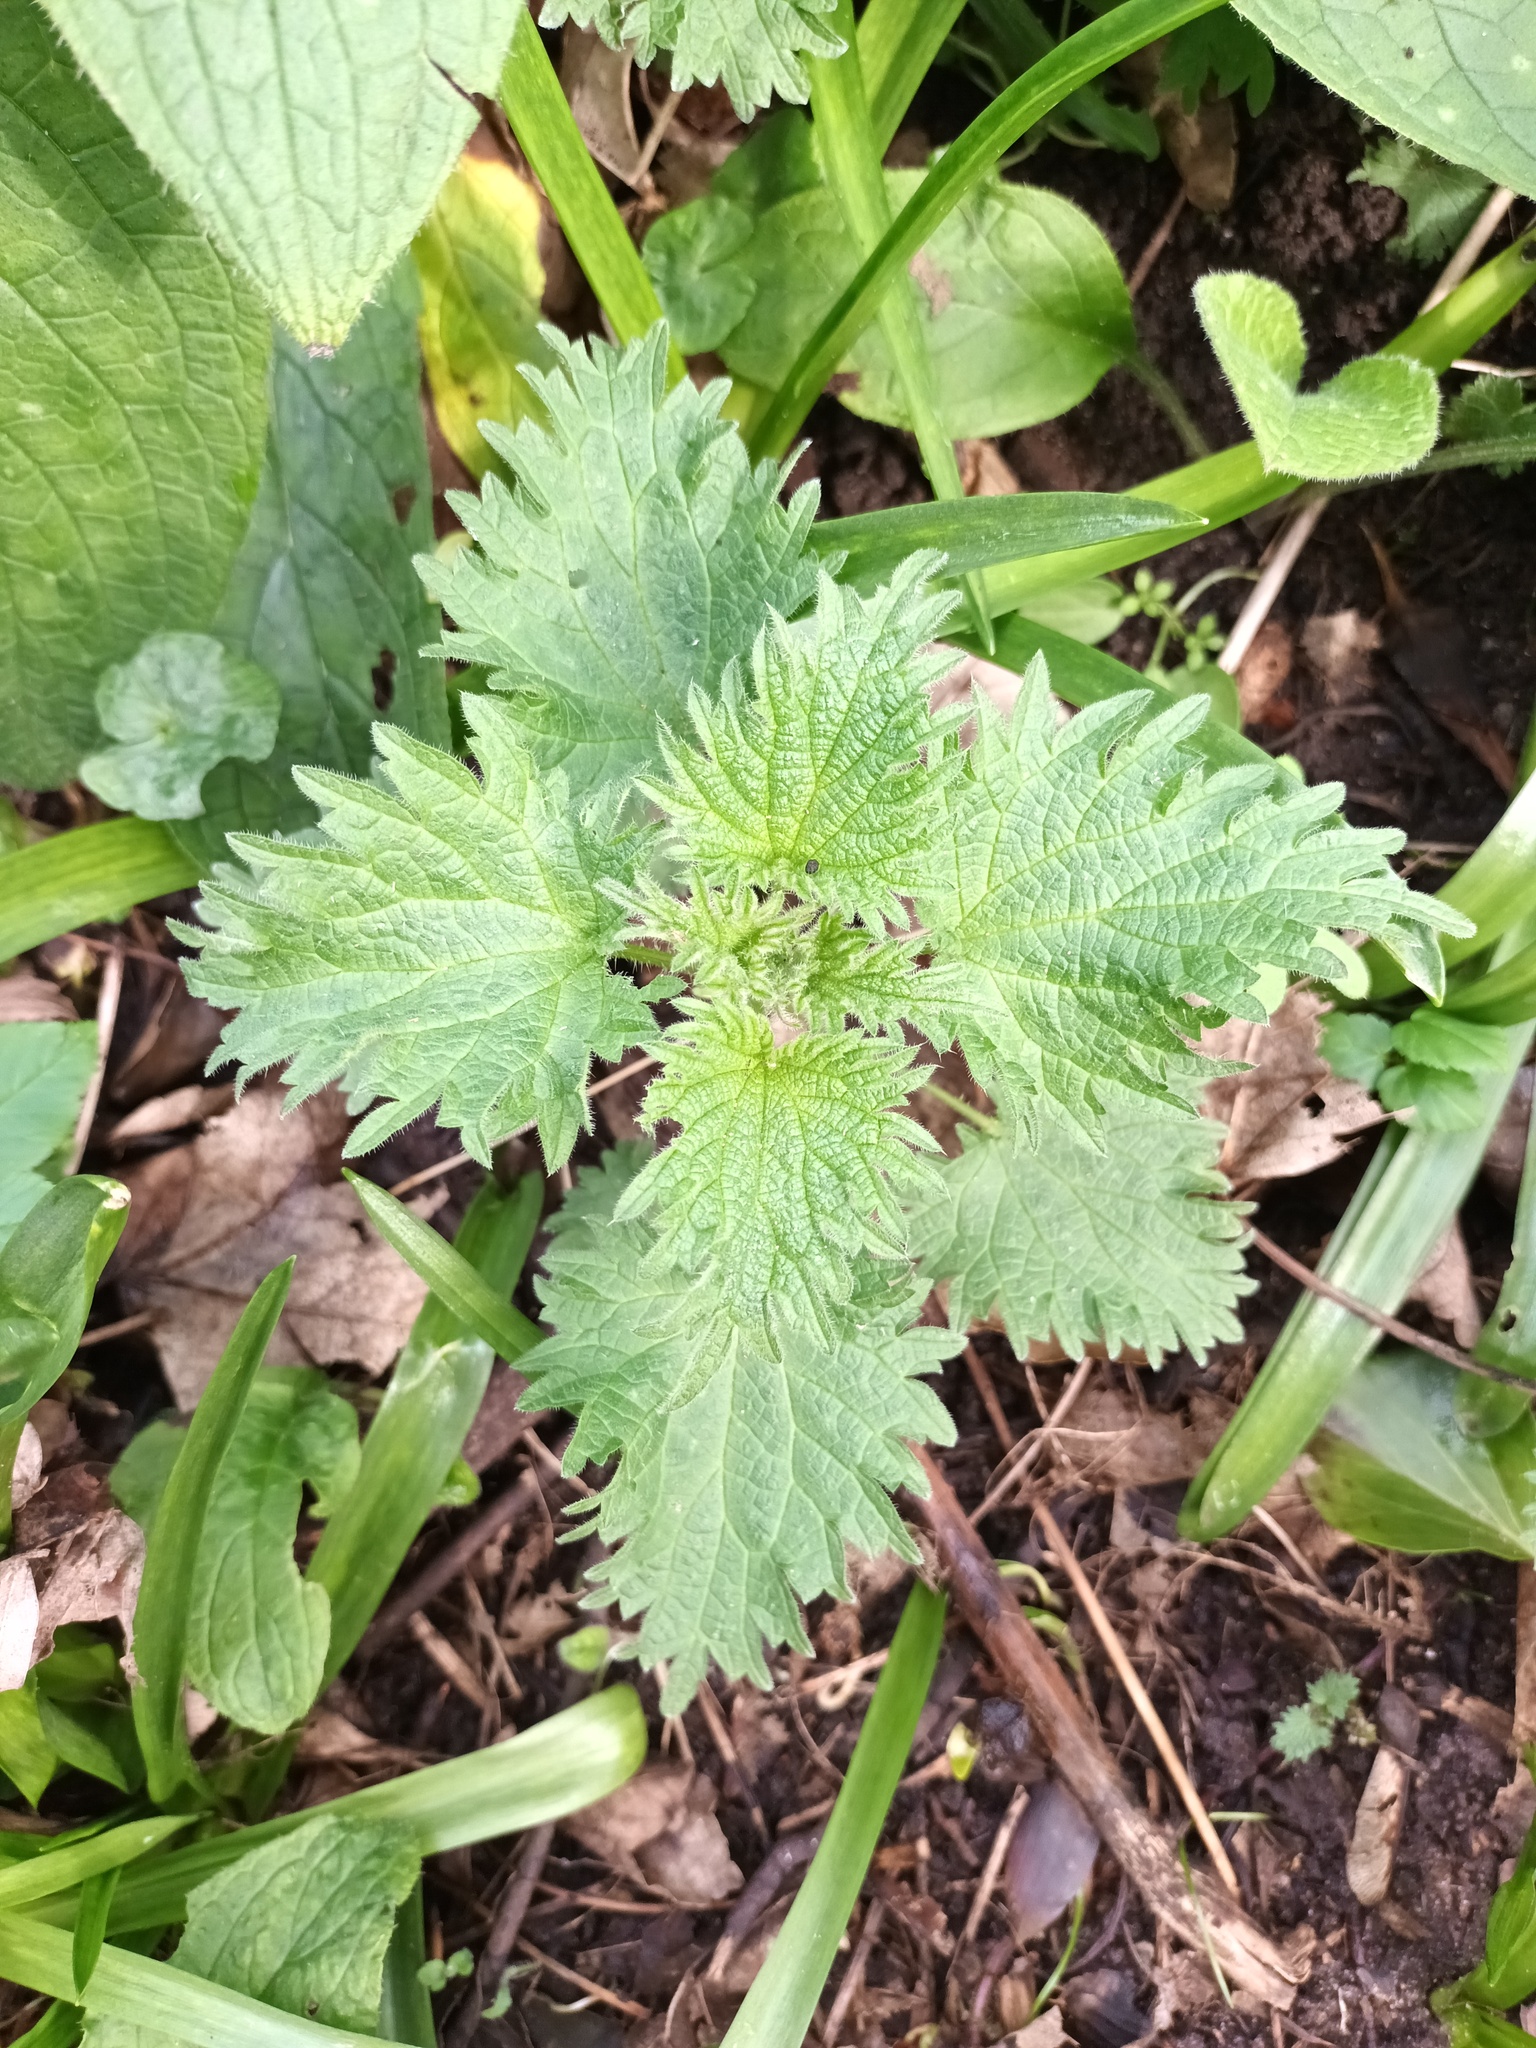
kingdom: Plantae
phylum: Tracheophyta
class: Magnoliopsida
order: Rosales
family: Urticaceae
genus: Urtica
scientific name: Urtica dioica
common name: Common nettle
